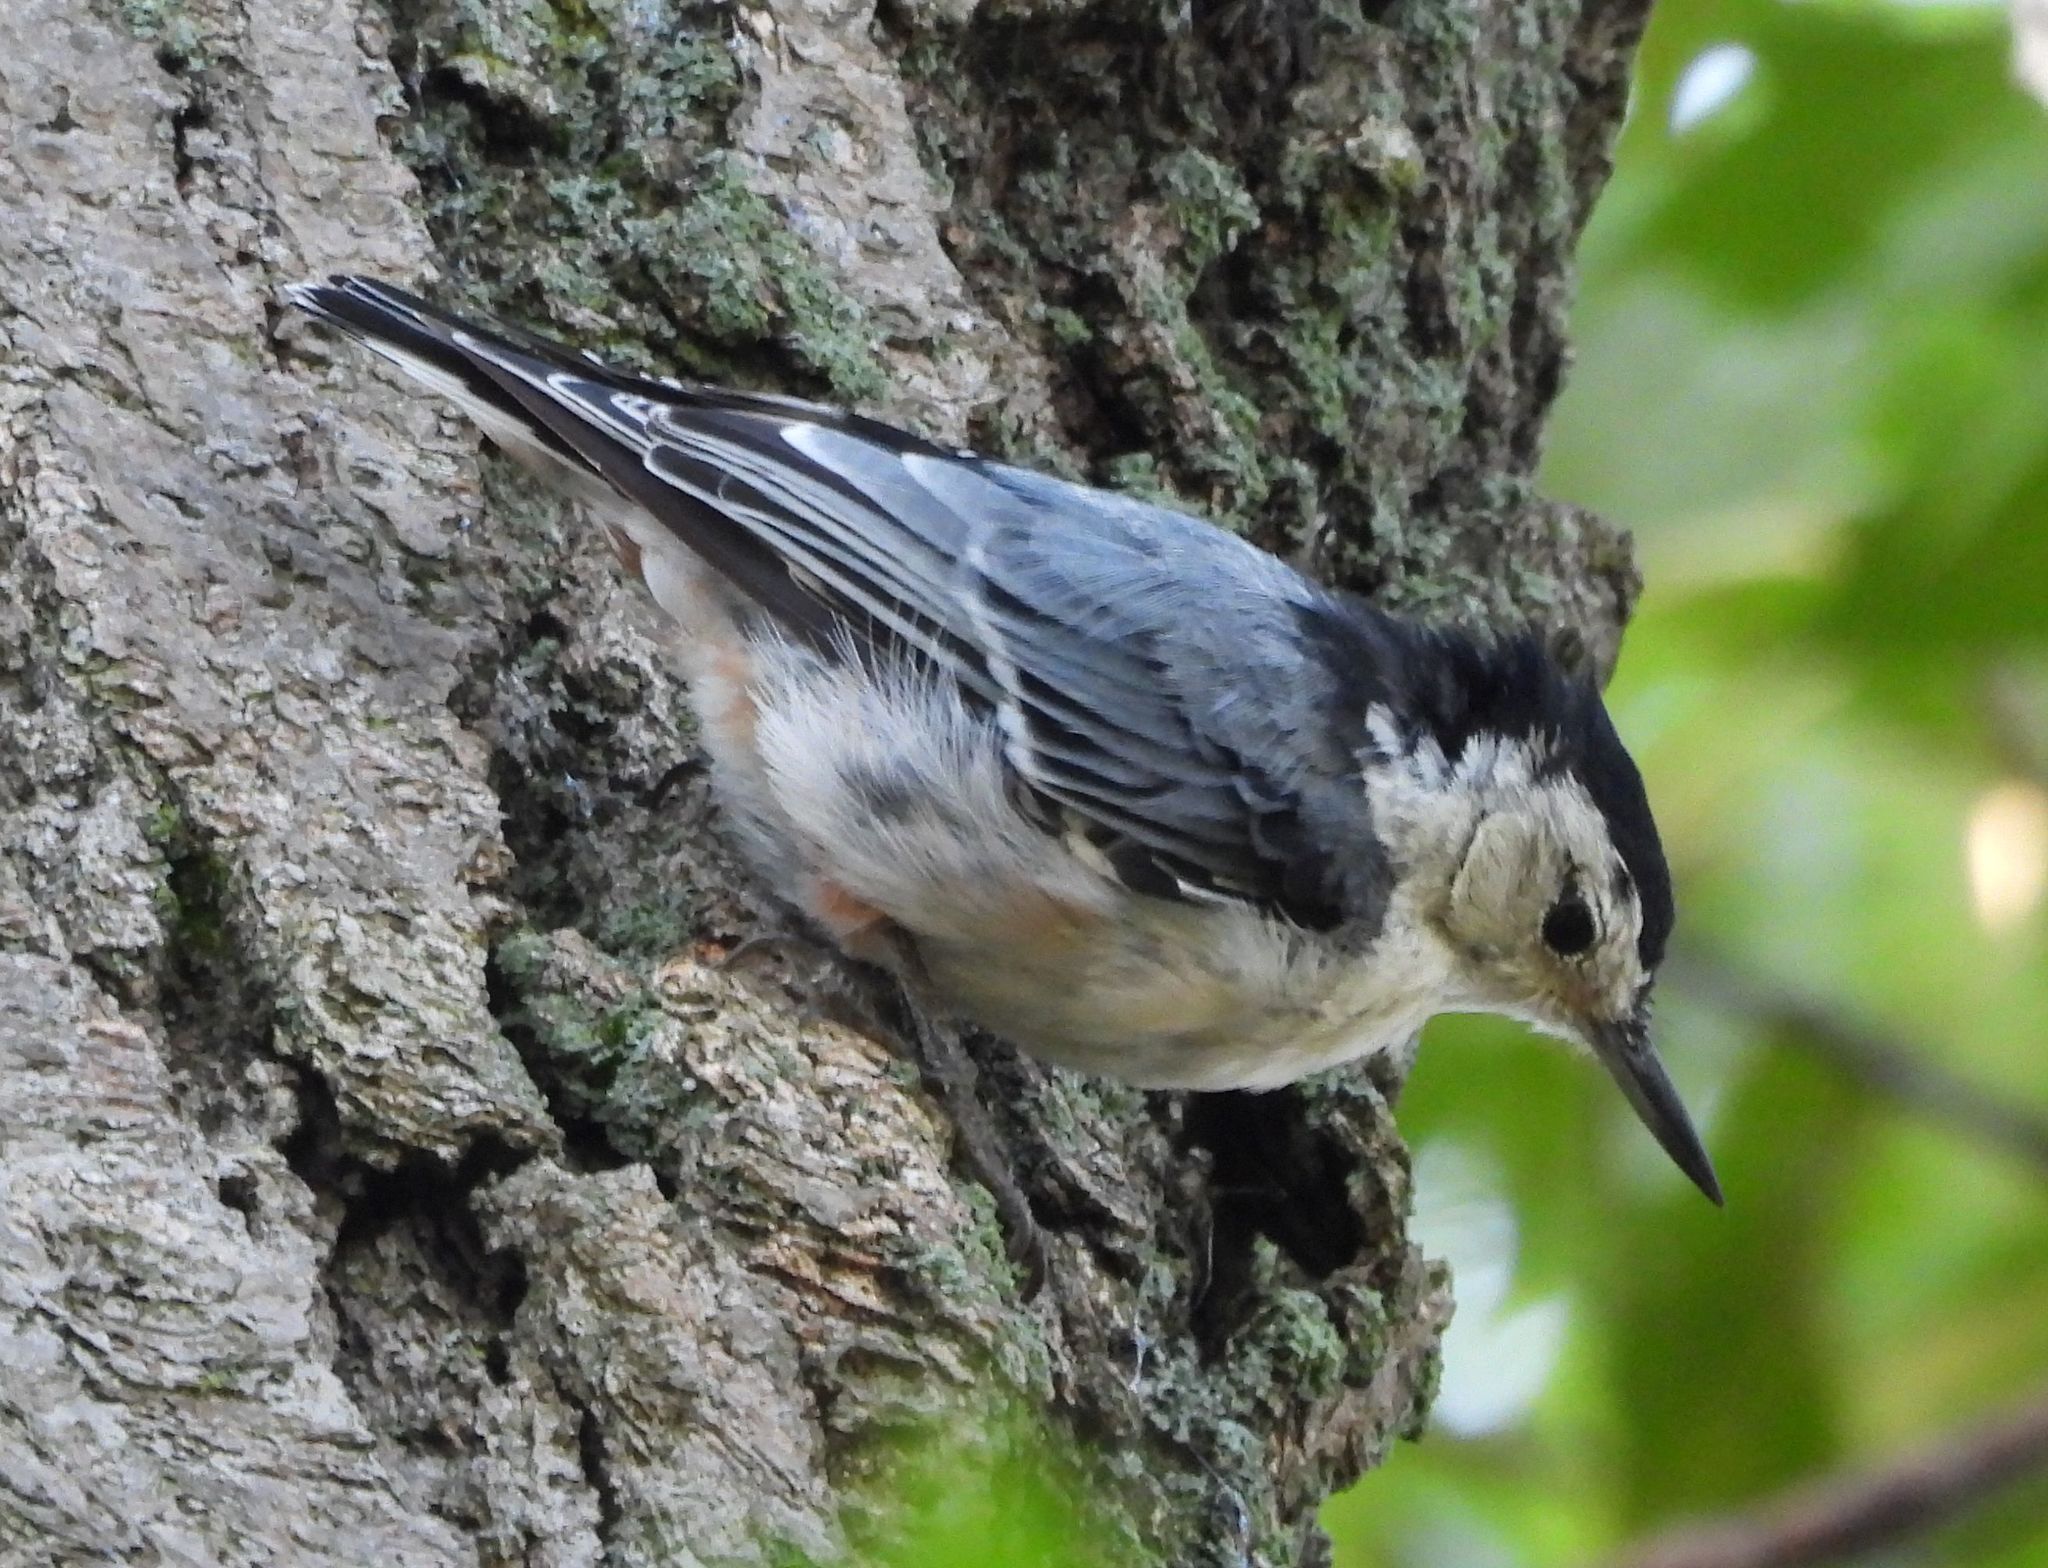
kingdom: Animalia
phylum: Chordata
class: Aves
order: Passeriformes
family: Sittidae
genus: Sitta
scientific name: Sitta carolinensis
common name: White-breasted nuthatch
